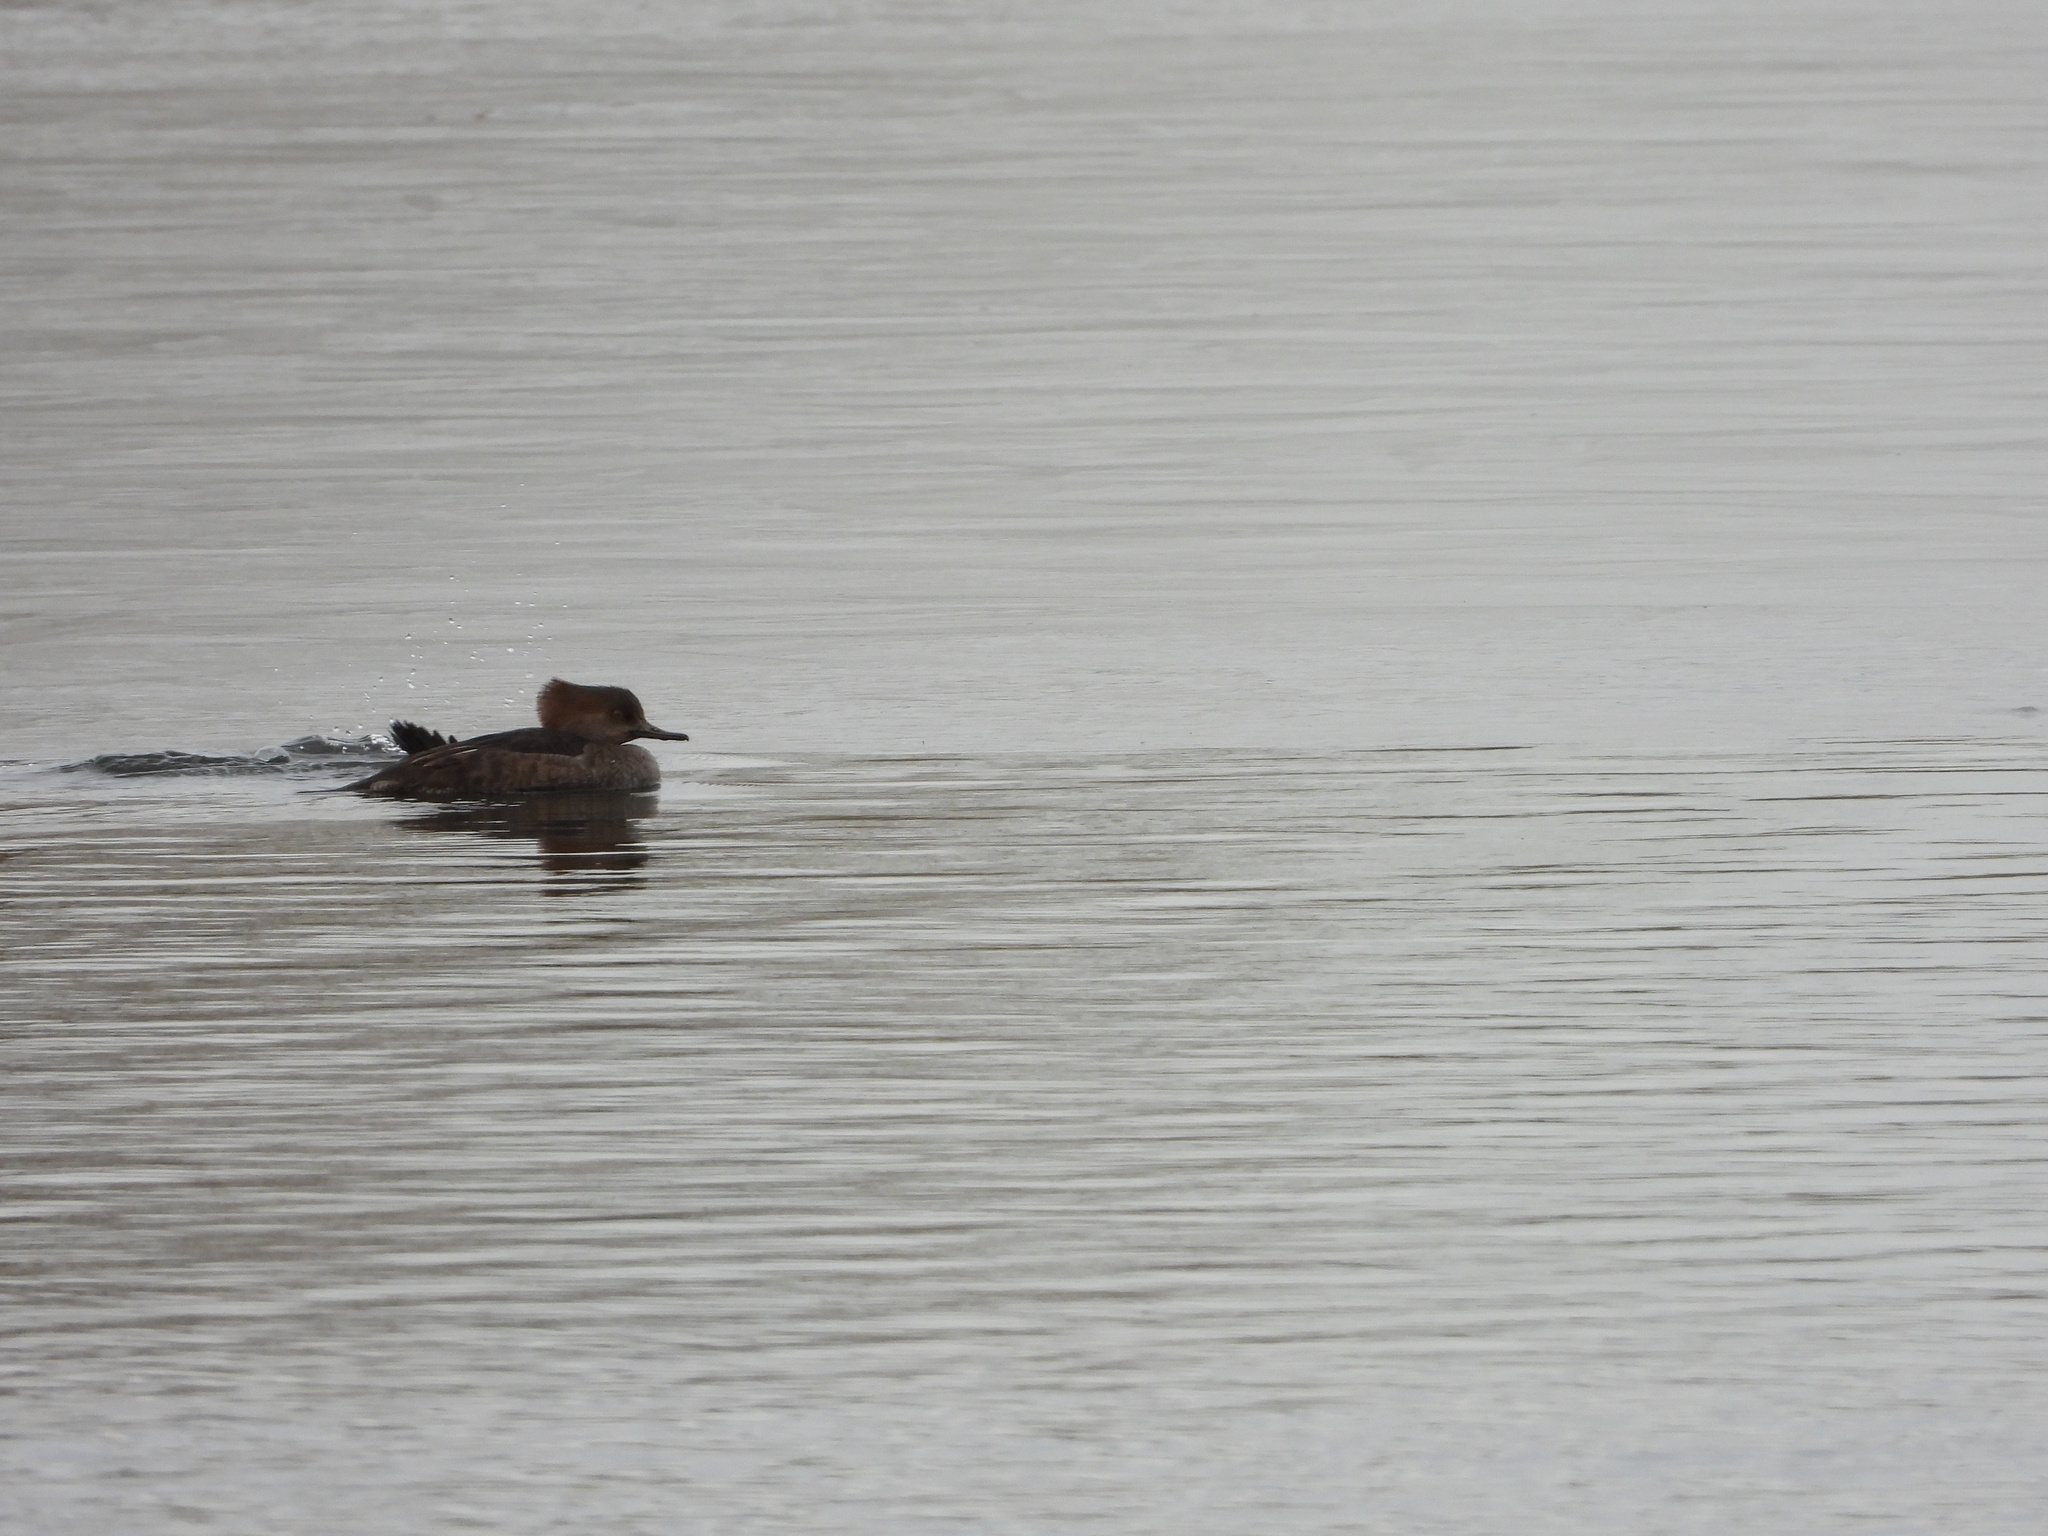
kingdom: Animalia
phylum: Chordata
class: Aves
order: Anseriformes
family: Anatidae
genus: Lophodytes
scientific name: Lophodytes cucullatus
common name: Hooded merganser
